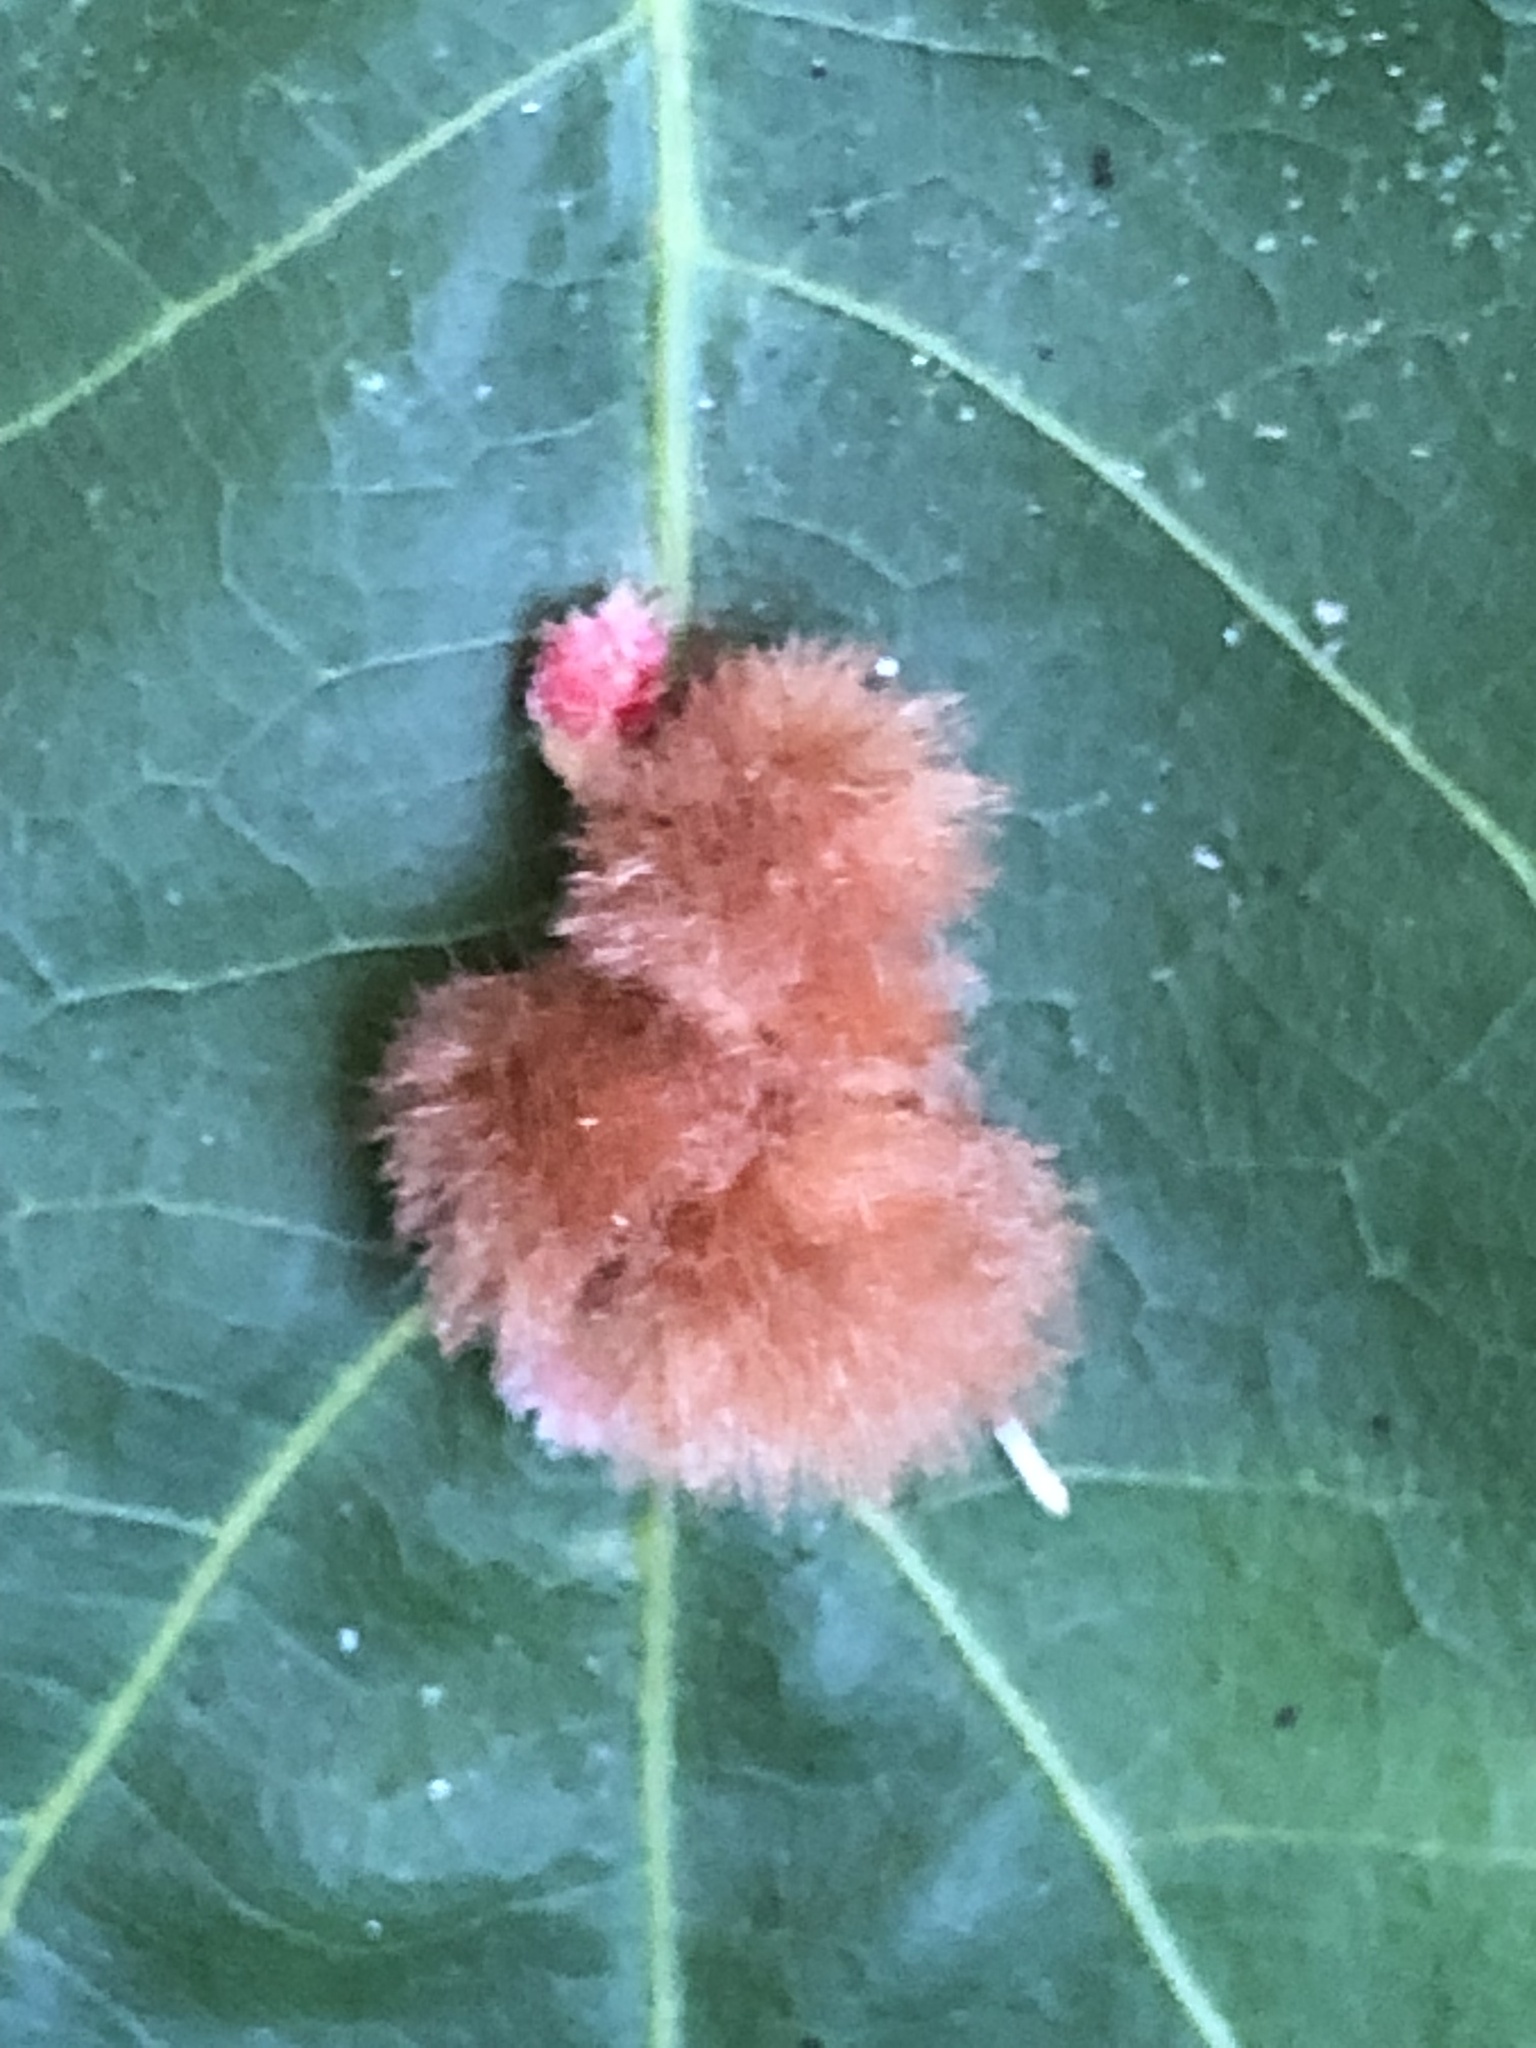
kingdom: Animalia
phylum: Arthropoda
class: Insecta
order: Hymenoptera
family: Cynipidae
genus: Callirhytis
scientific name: Callirhytis
